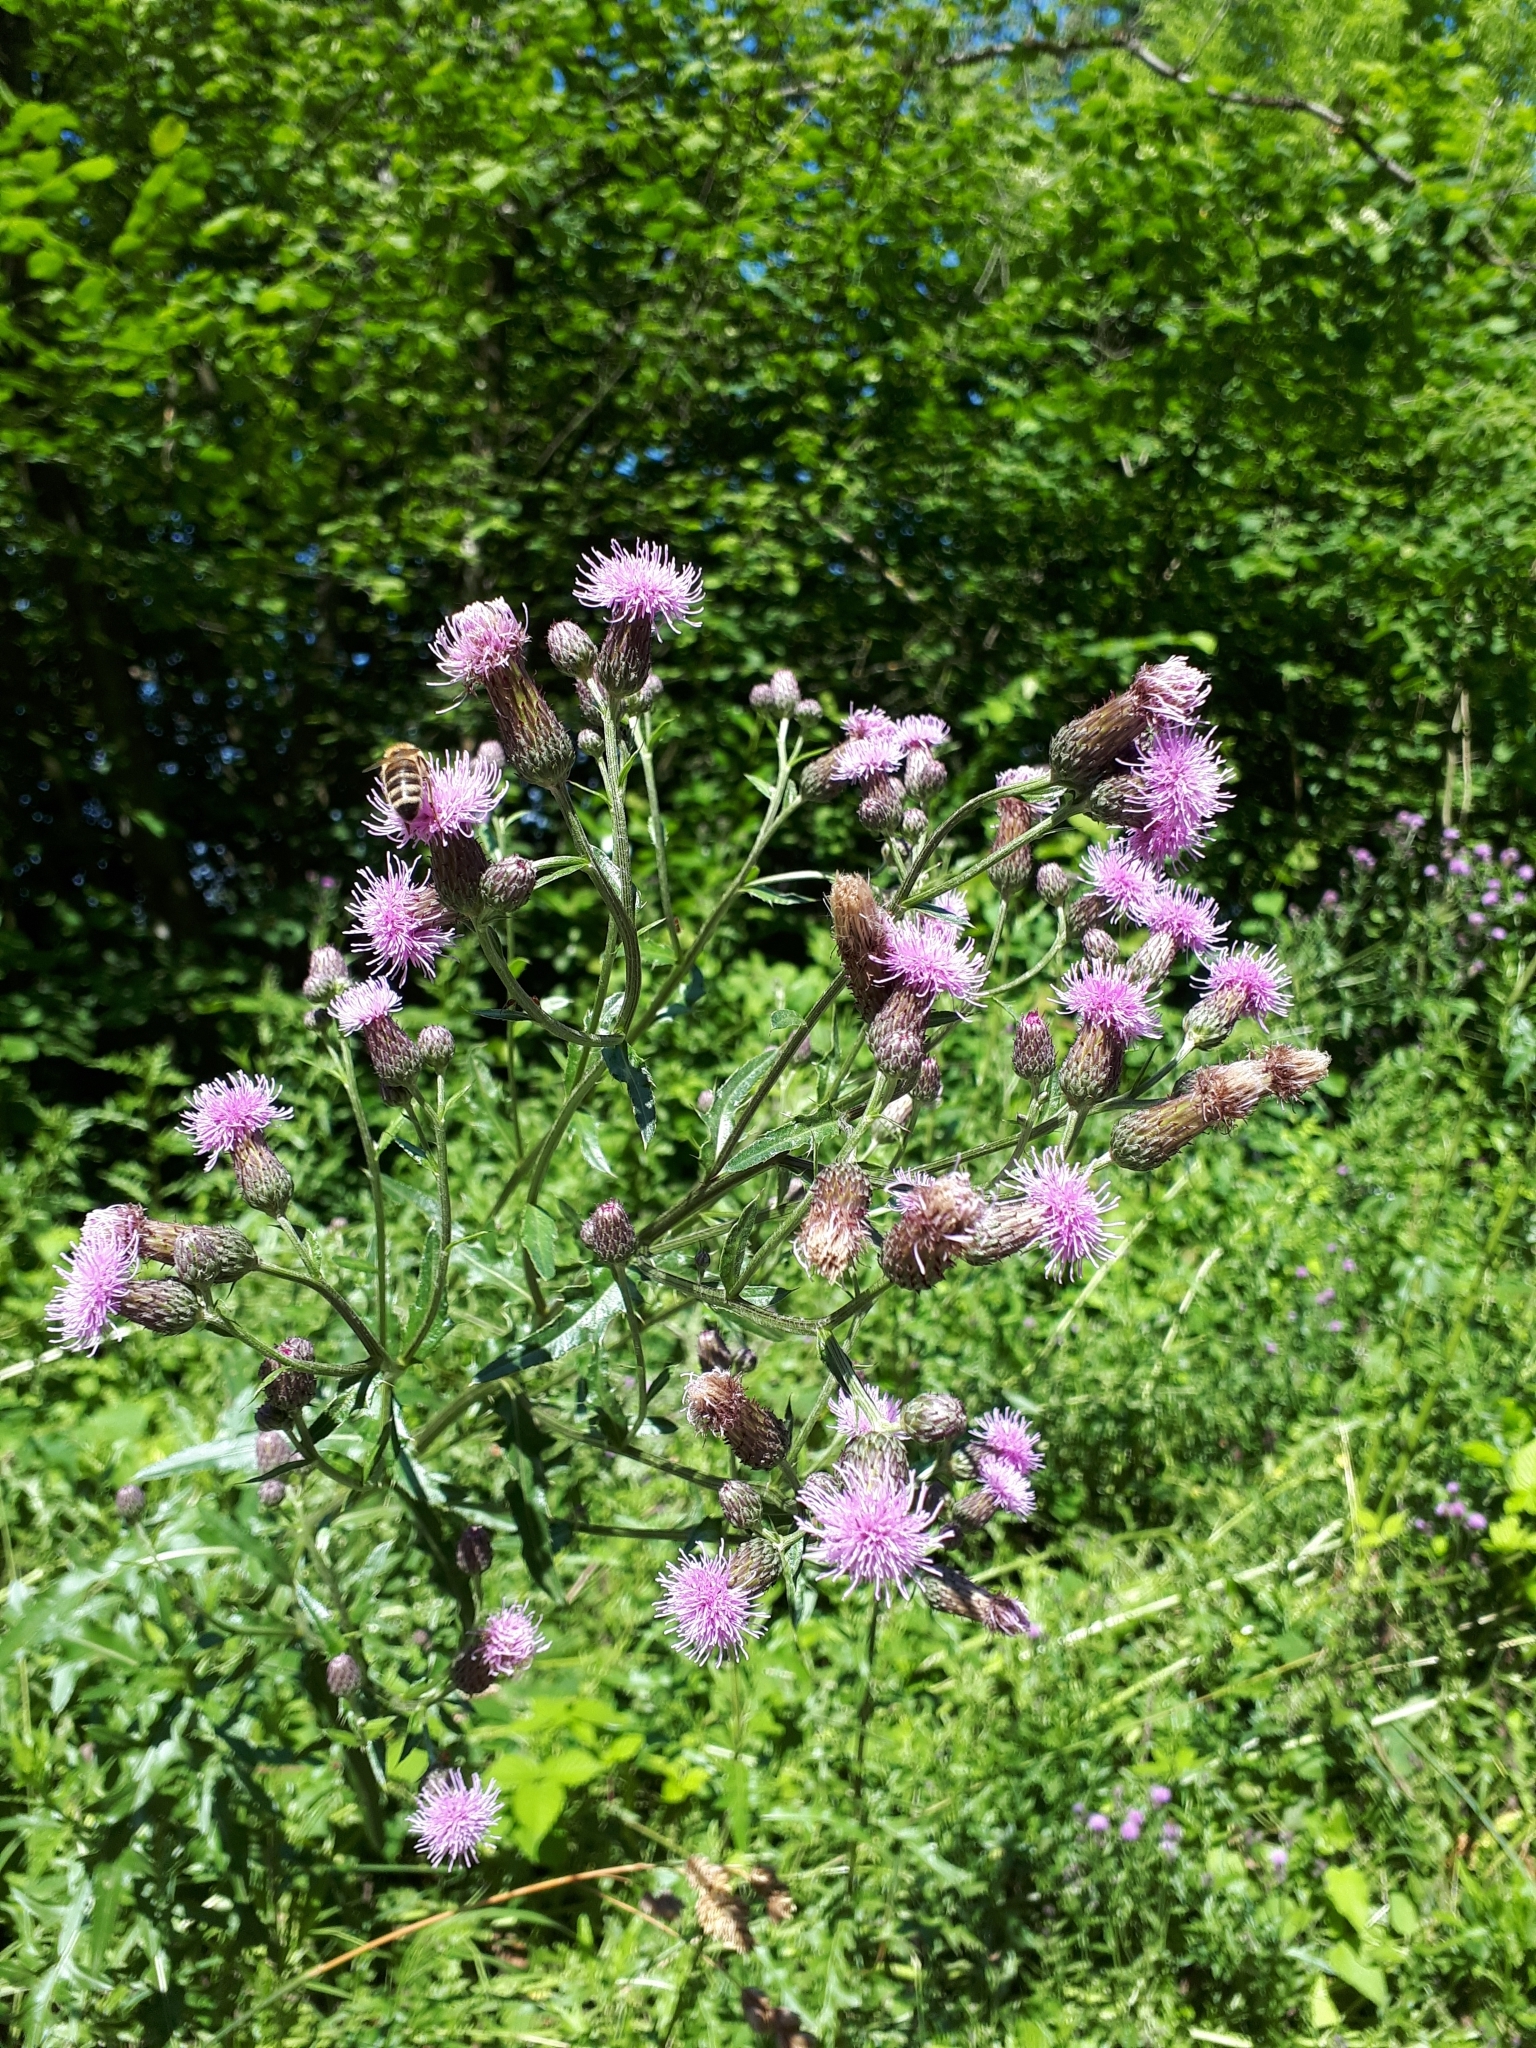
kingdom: Plantae
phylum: Tracheophyta
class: Magnoliopsida
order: Asterales
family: Asteraceae
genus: Cirsium
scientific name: Cirsium arvense
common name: Creeping thistle
